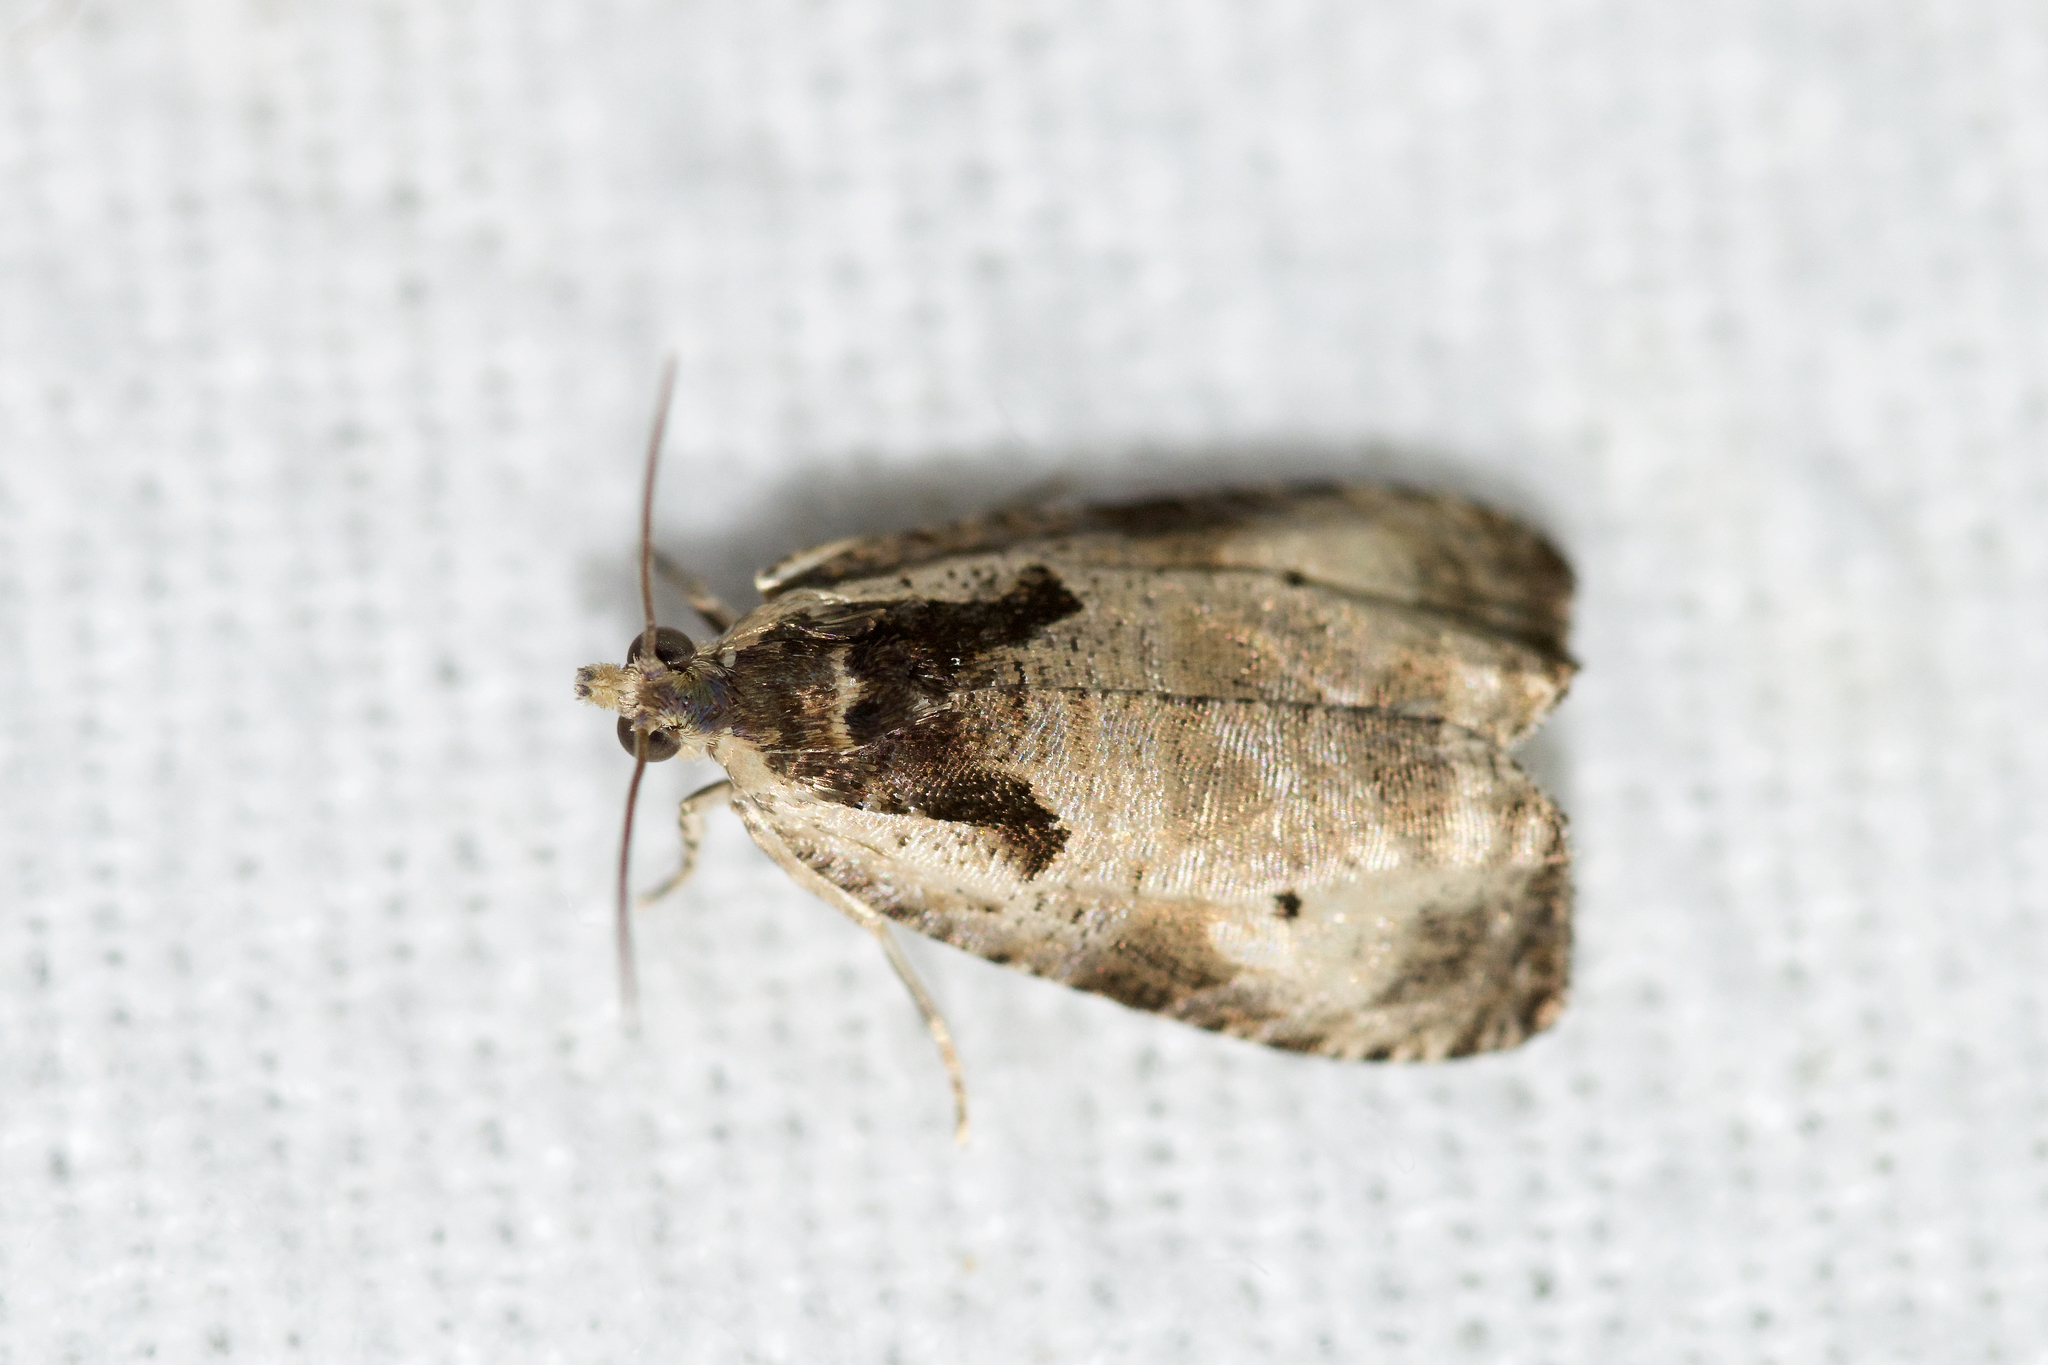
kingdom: Animalia
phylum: Arthropoda
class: Insecta
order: Lepidoptera
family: Tortricidae
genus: Olethreutes
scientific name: Olethreutes punctanum
